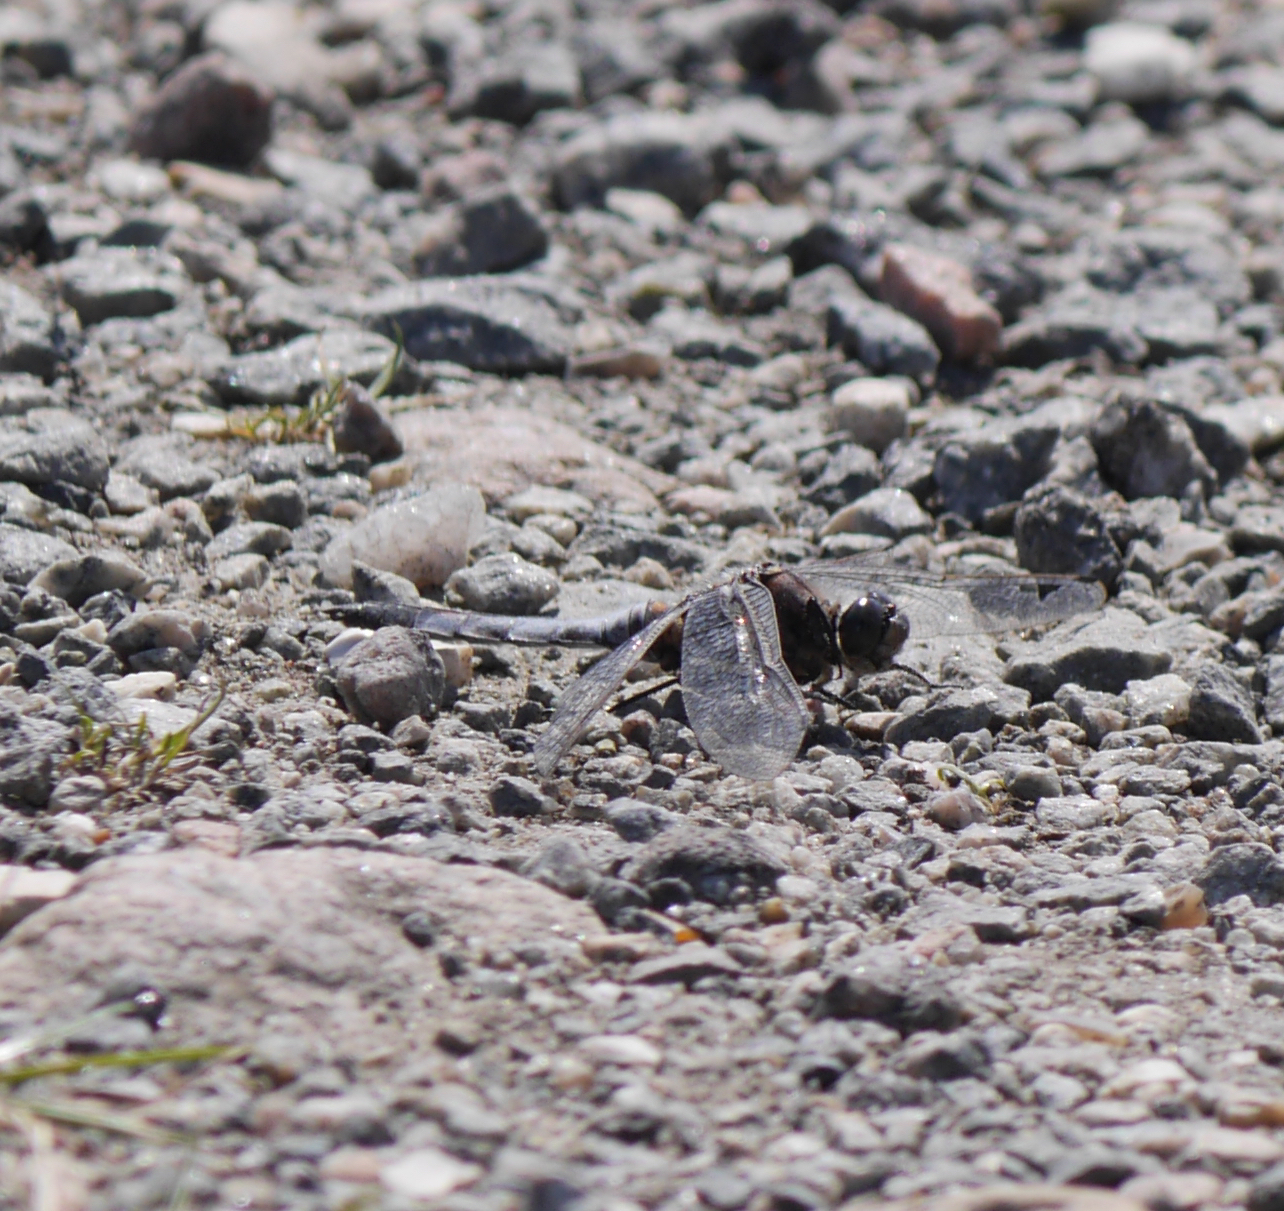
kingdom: Animalia
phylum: Arthropoda
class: Insecta
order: Odonata
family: Libellulidae
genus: Orthetrum
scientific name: Orthetrum cancellatum
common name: Black-tailed skimmer
